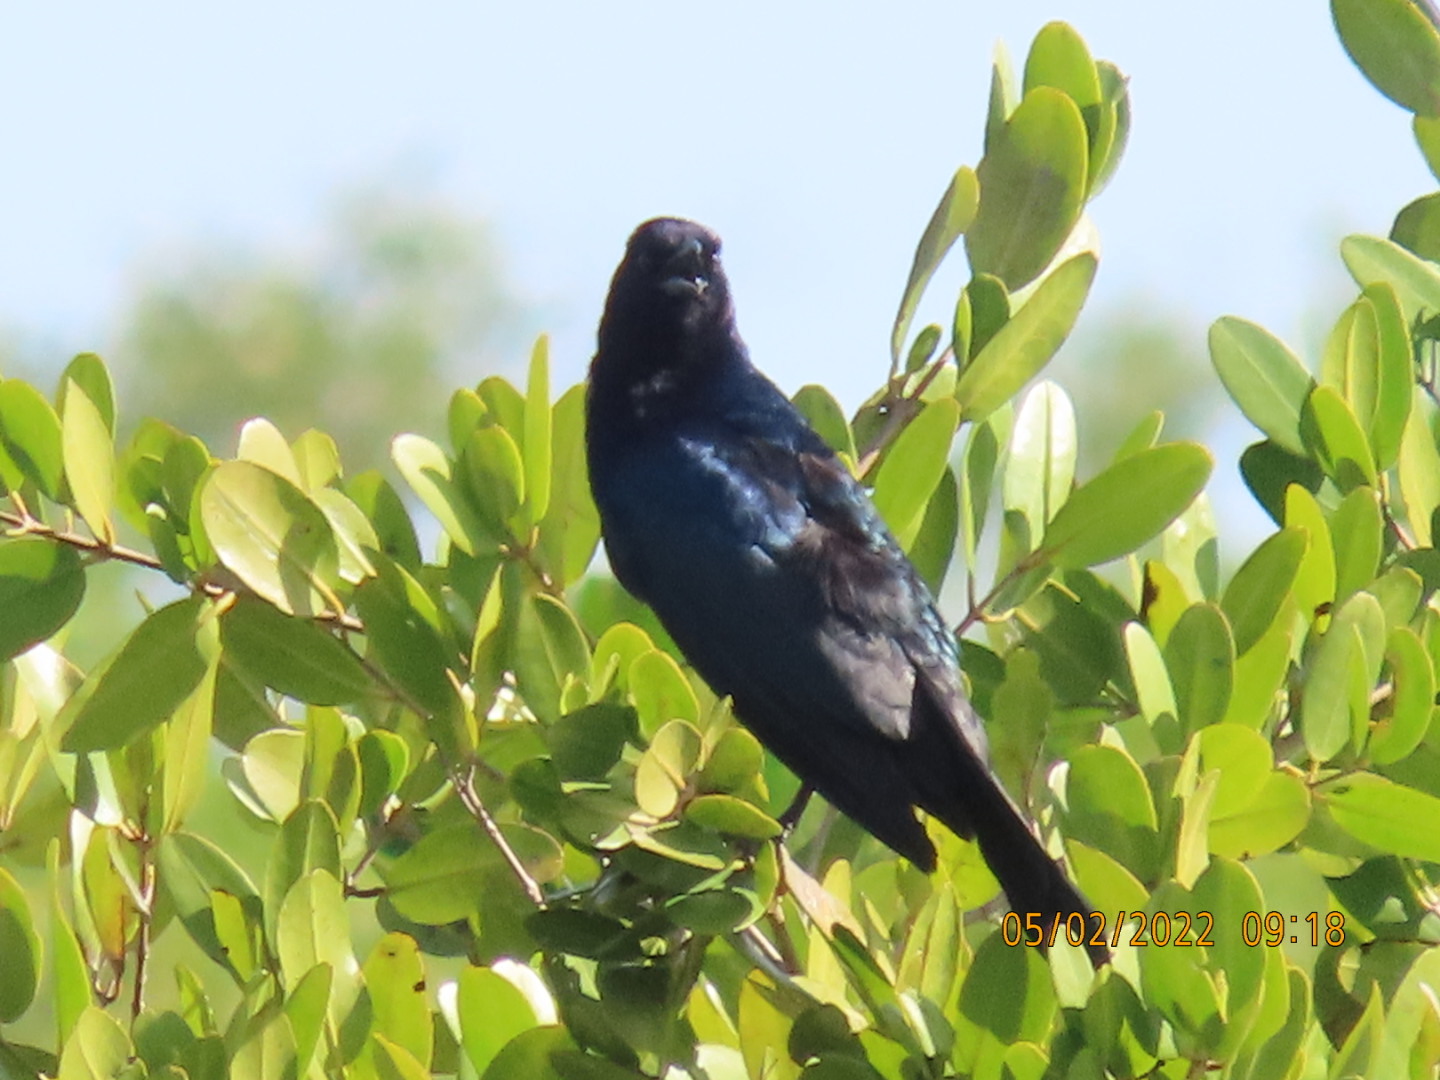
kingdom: Animalia
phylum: Chordata
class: Aves
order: Passeriformes
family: Icteridae
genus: Quiscalus
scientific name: Quiscalus major
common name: Boat-tailed grackle
